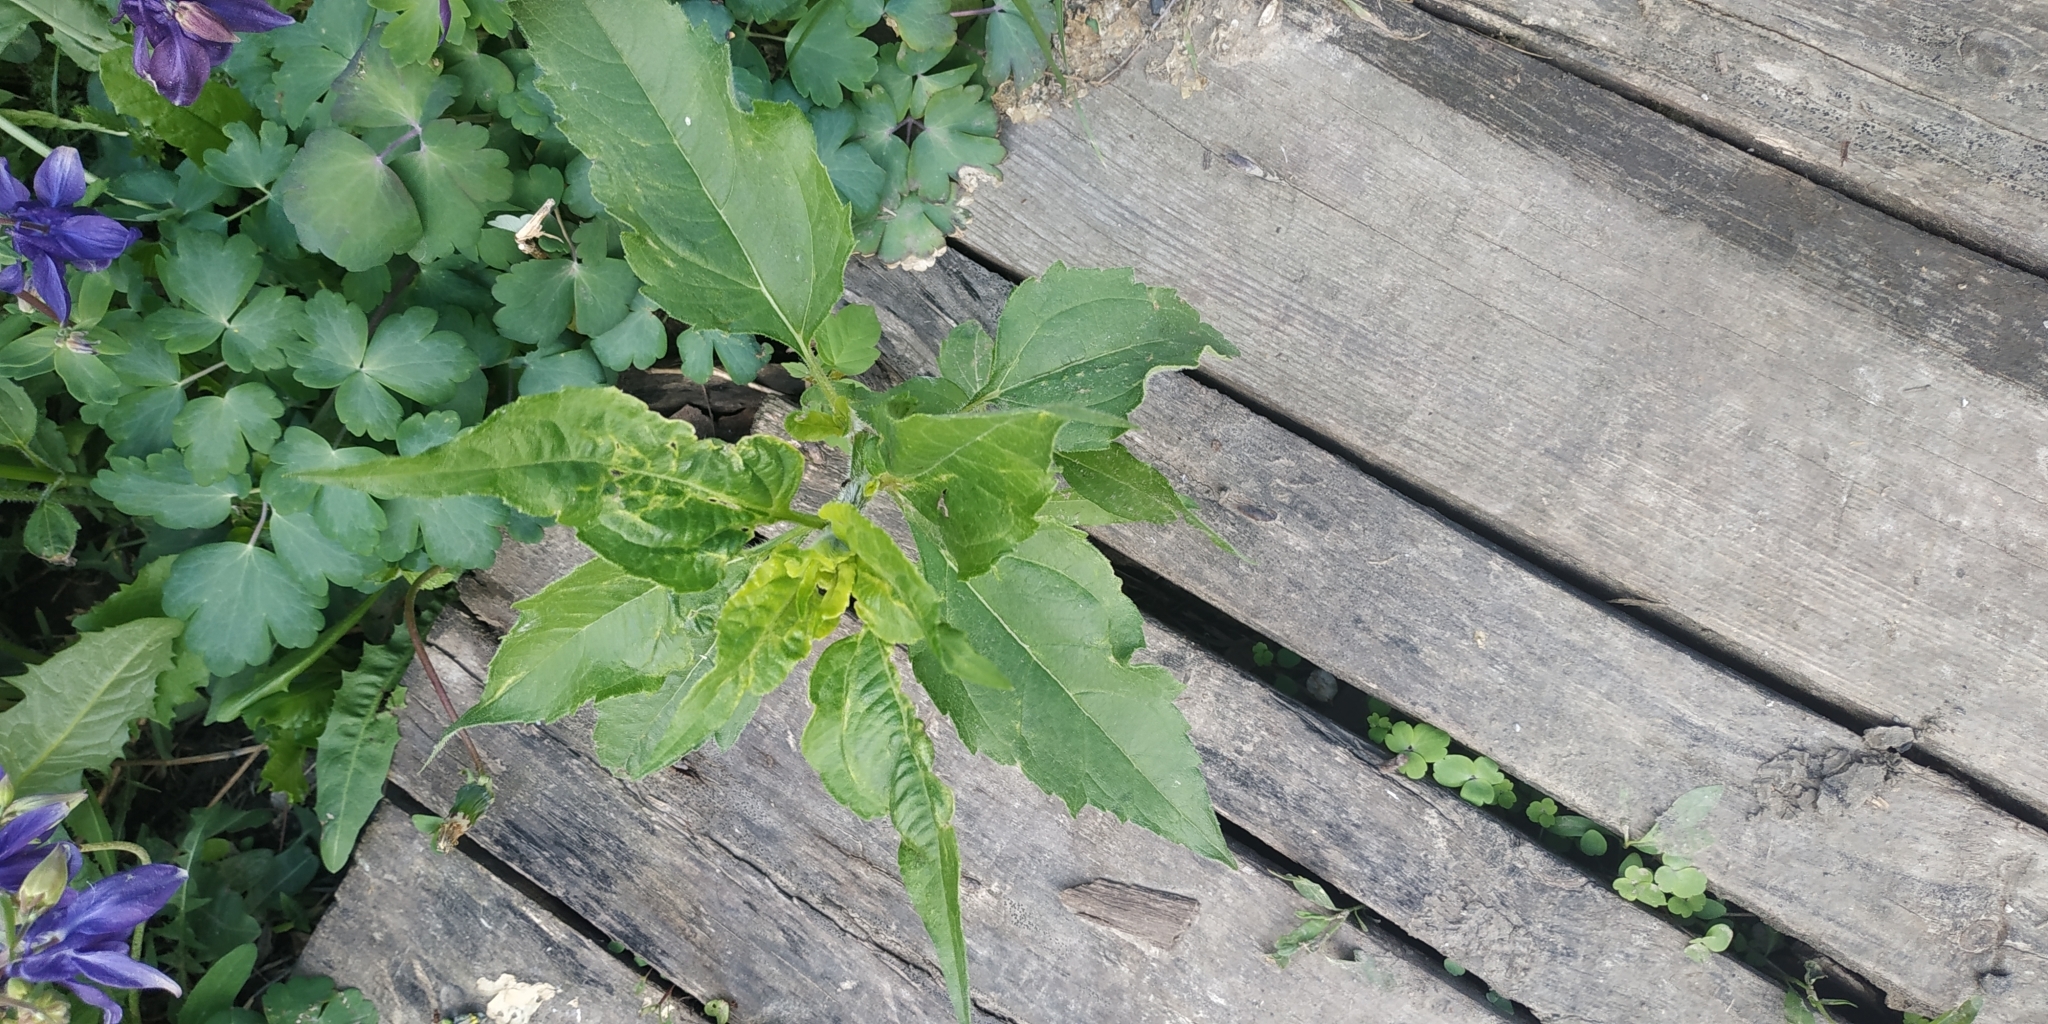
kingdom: Plantae
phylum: Tracheophyta
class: Magnoliopsida
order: Asterales
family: Asteraceae
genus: Helianthus
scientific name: Helianthus tuberosus
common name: Jerusalem artichoke
